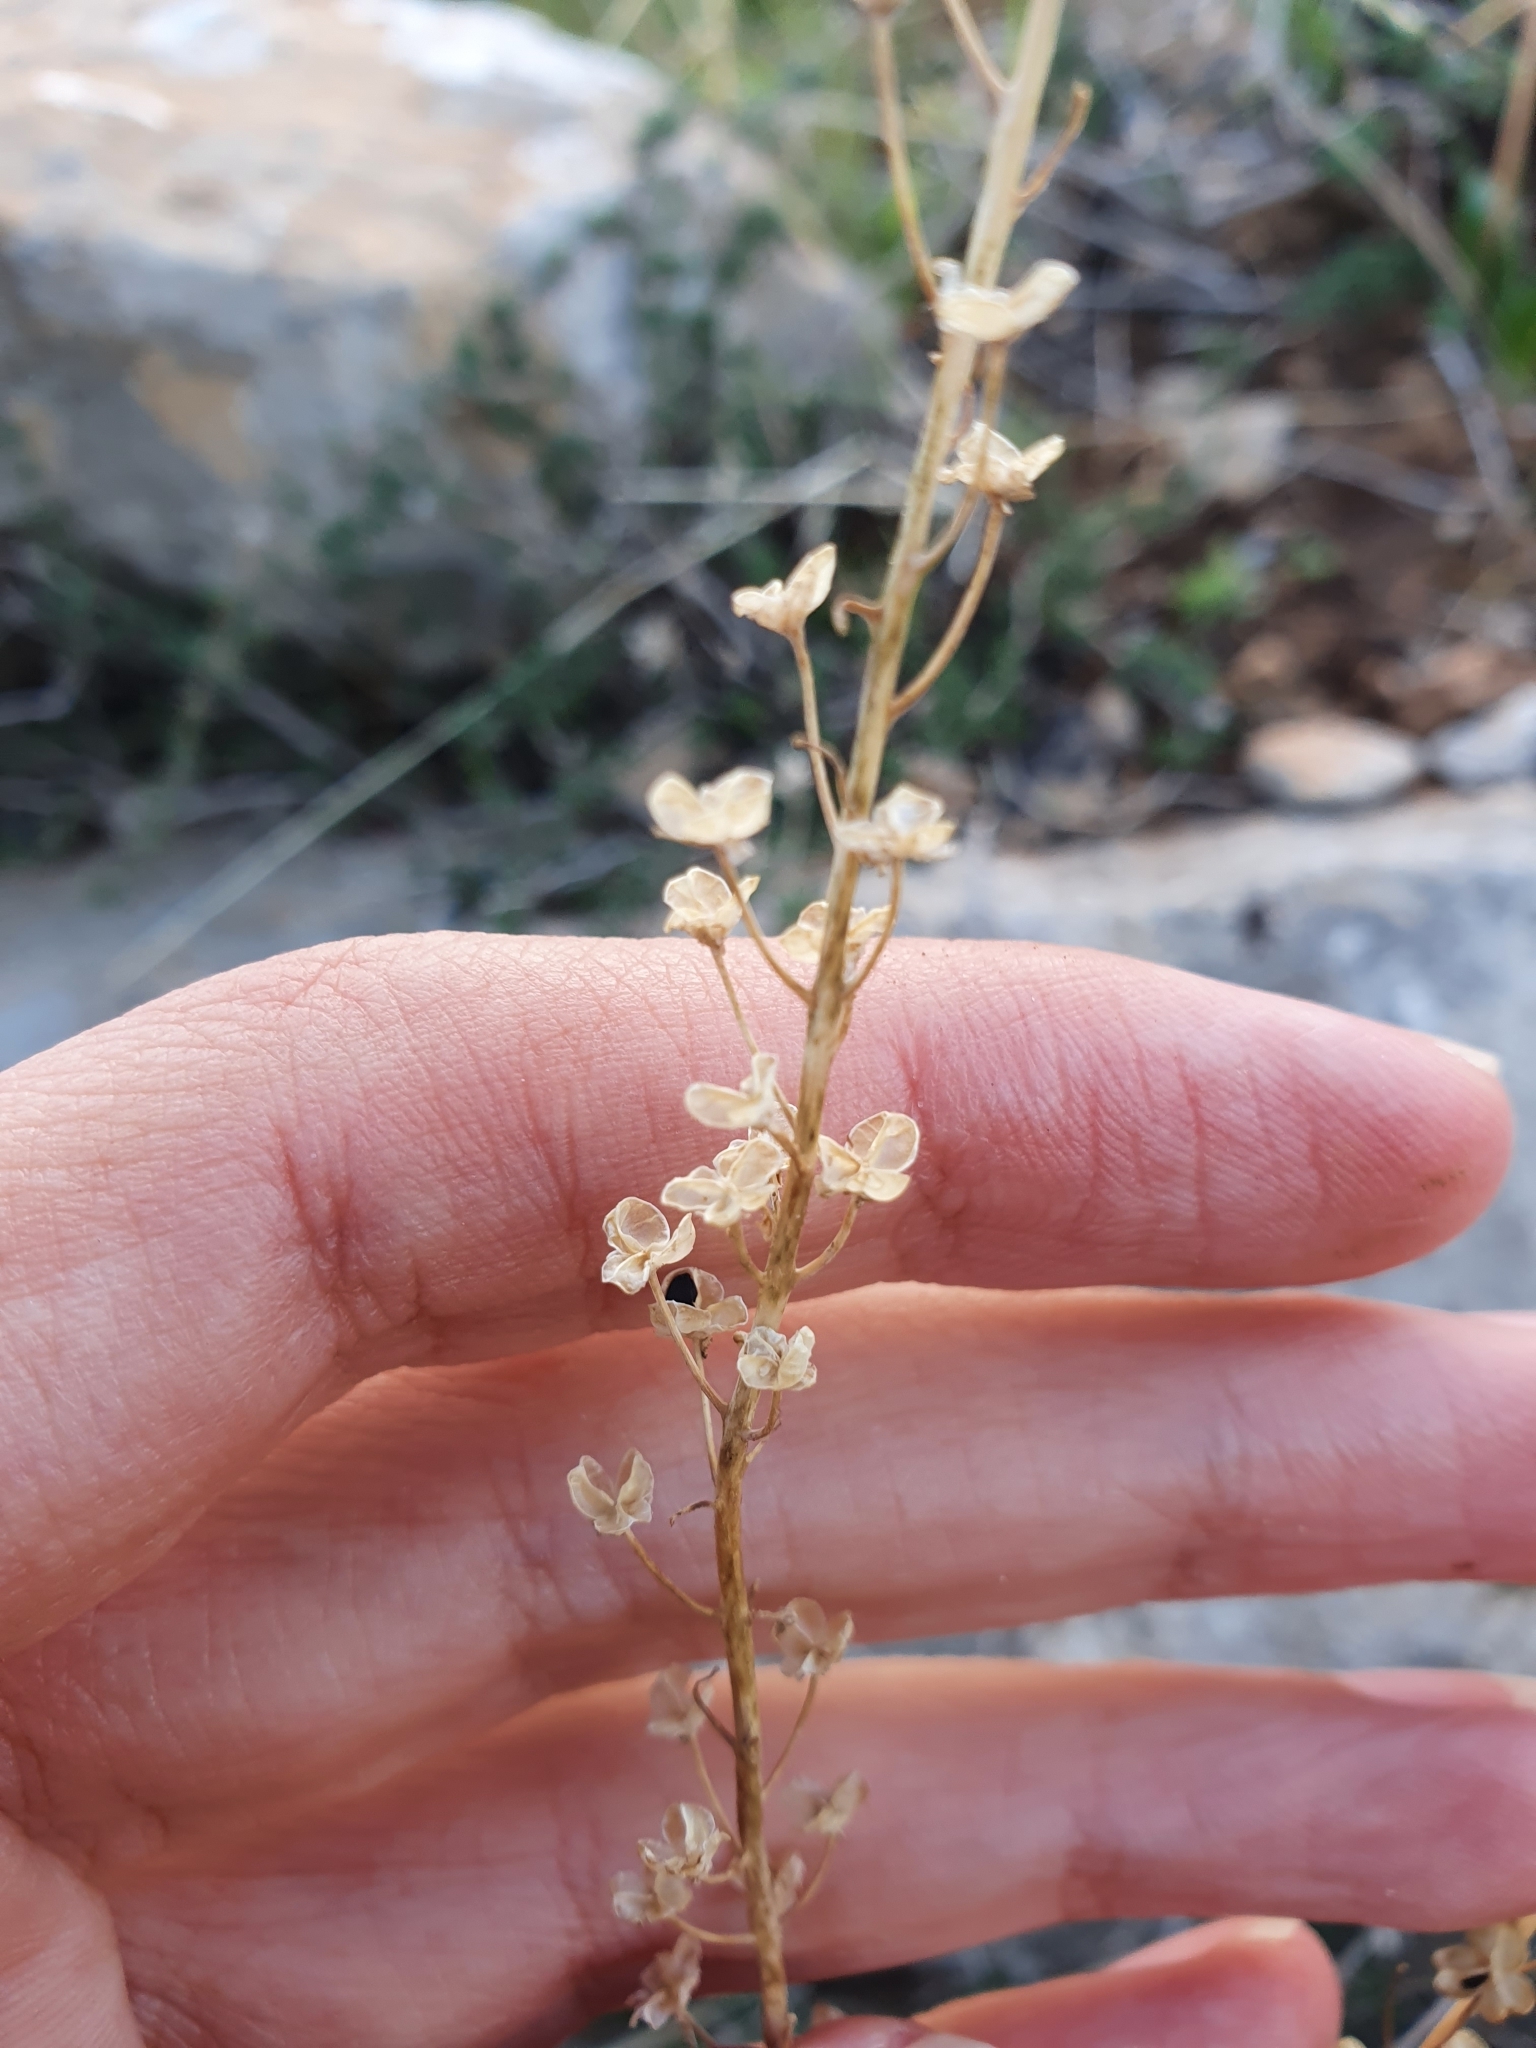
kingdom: Plantae
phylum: Tracheophyta
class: Liliopsida
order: Asparagales
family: Asparagaceae
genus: Prospero
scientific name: Prospero obtusifolium
